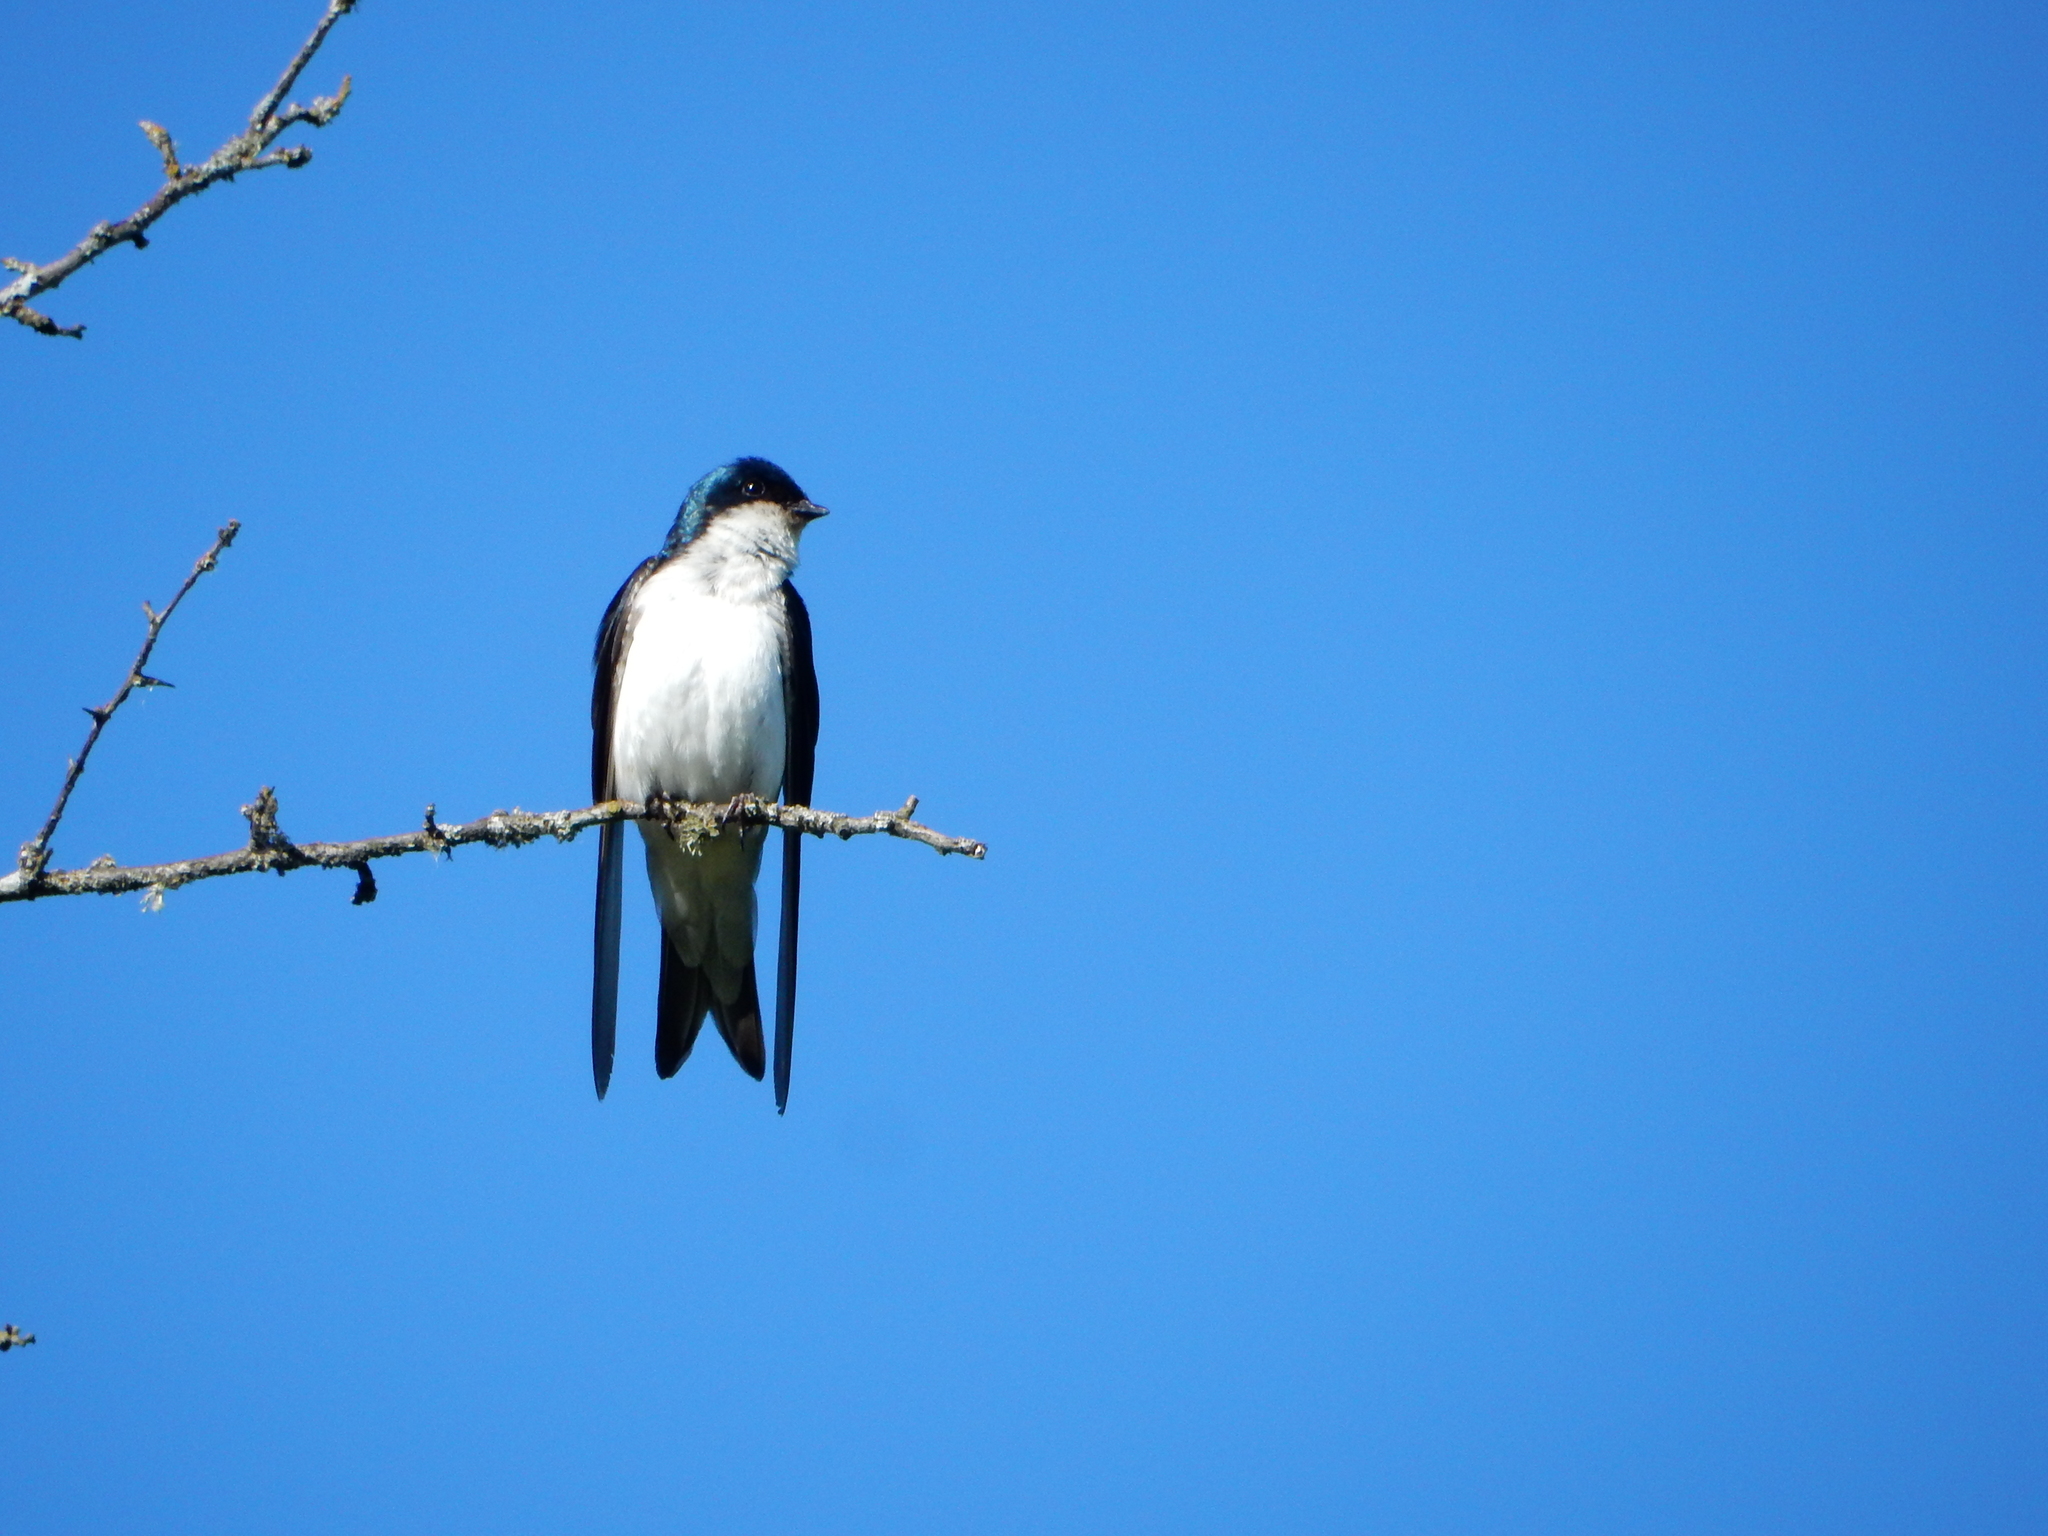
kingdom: Animalia
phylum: Chordata
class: Aves
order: Passeriformes
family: Hirundinidae
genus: Tachycineta
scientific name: Tachycineta bicolor
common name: Tree swallow
